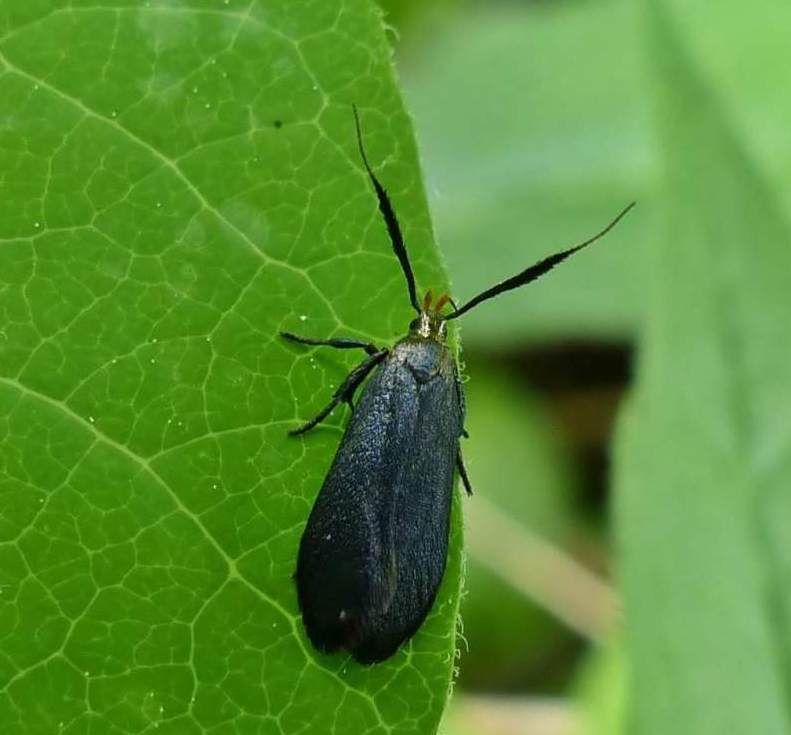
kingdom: Animalia
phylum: Arthropoda
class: Insecta
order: Lepidoptera
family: Gelechiidae
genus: Dichomeris
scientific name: Dichomeris nonstrigella
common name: Little devil moth
